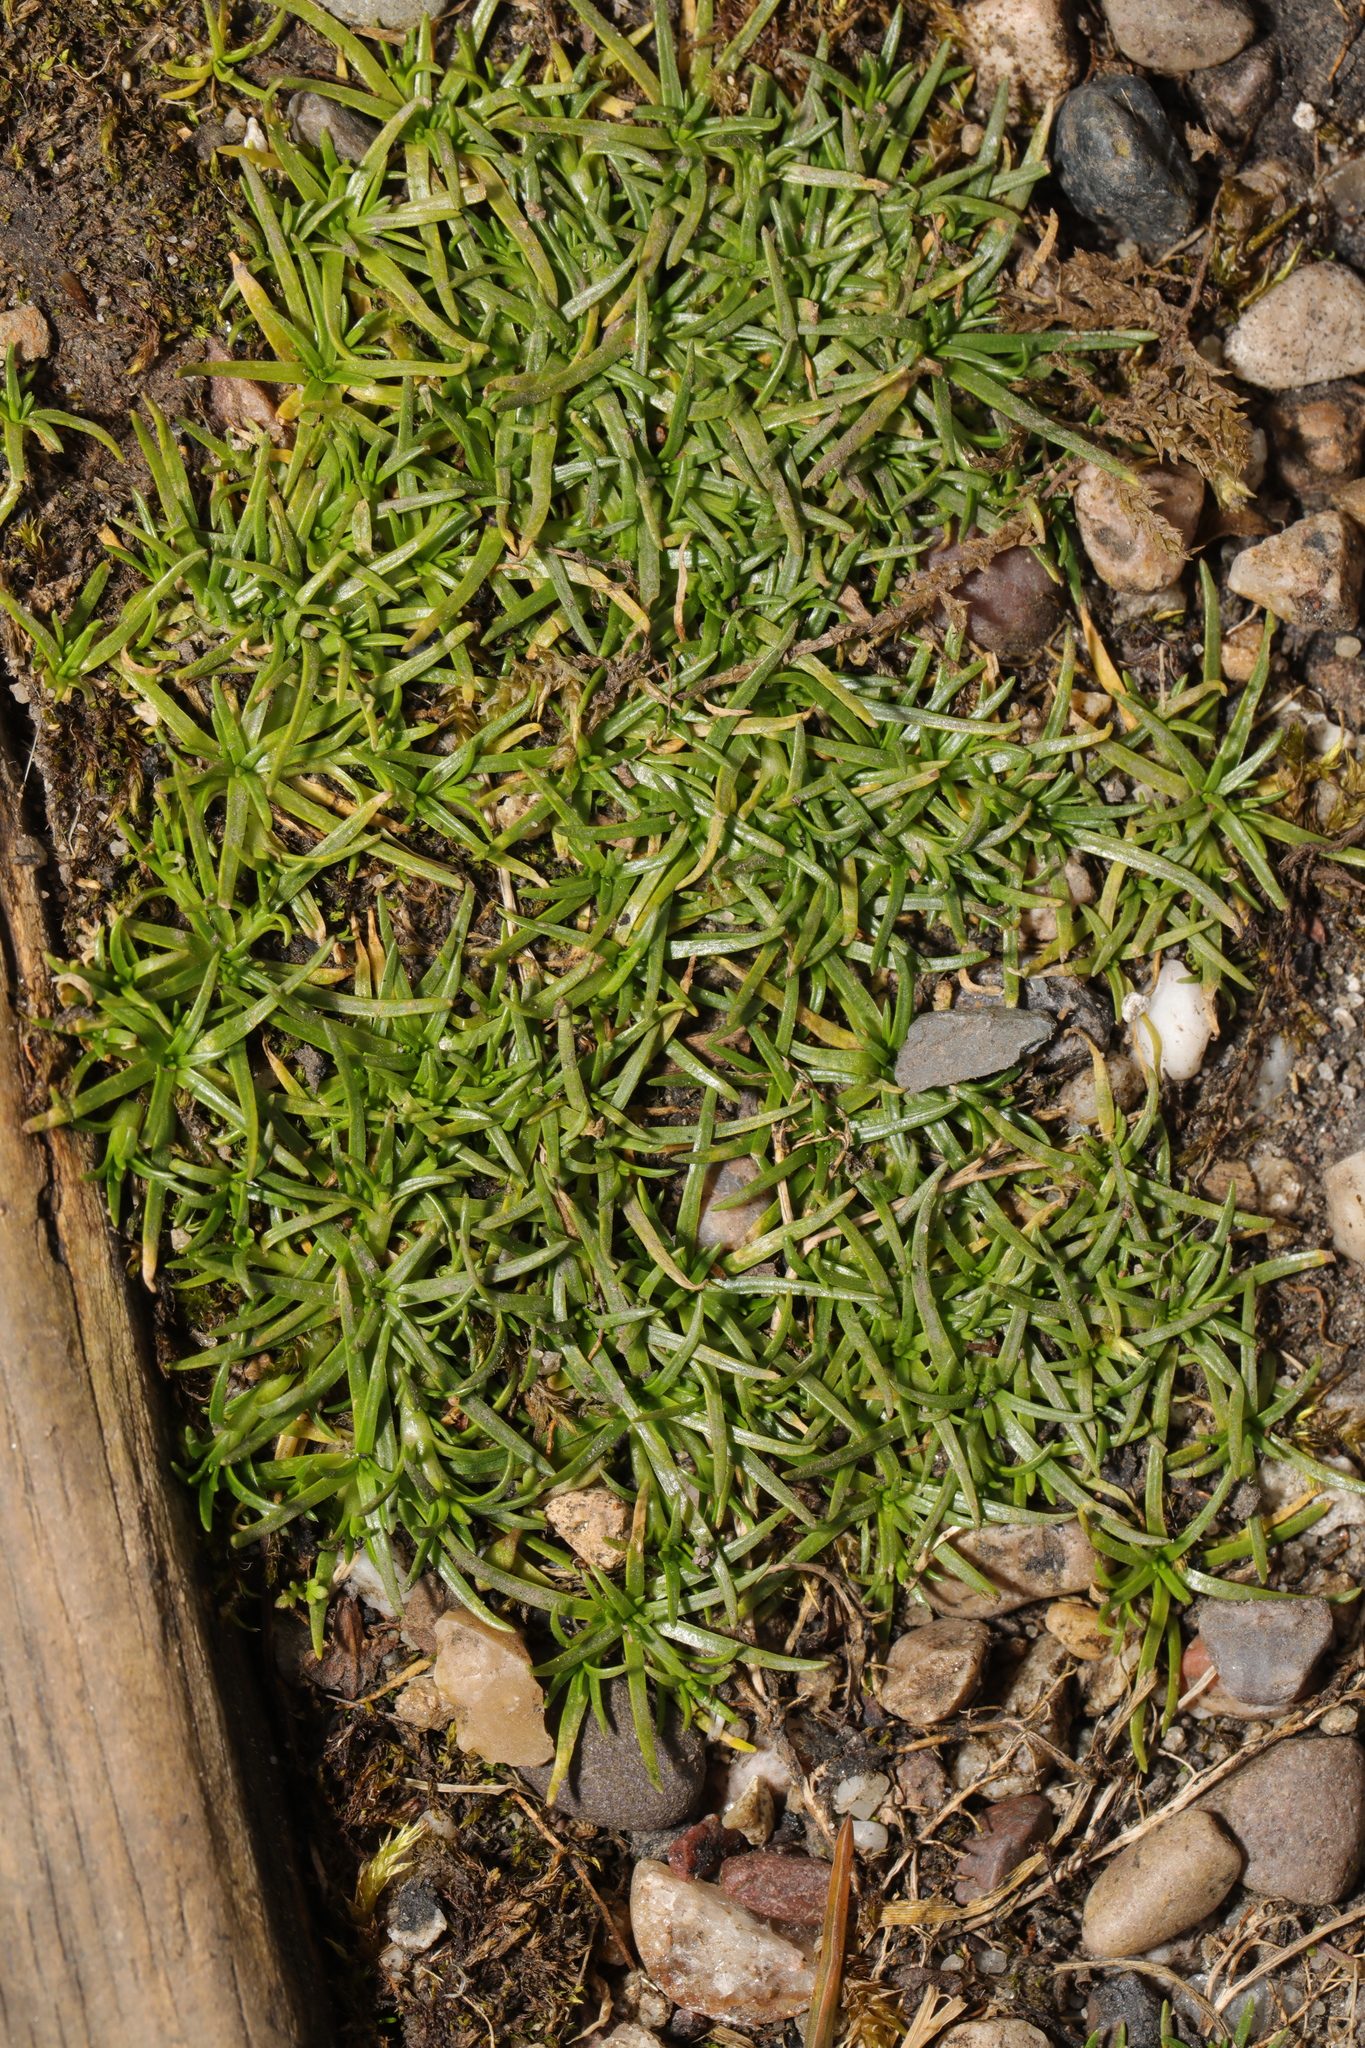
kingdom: Plantae
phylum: Tracheophyta
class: Magnoliopsida
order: Caryophyllales
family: Caryophyllaceae
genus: Sagina
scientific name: Sagina procumbens
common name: Procumbent pearlwort
